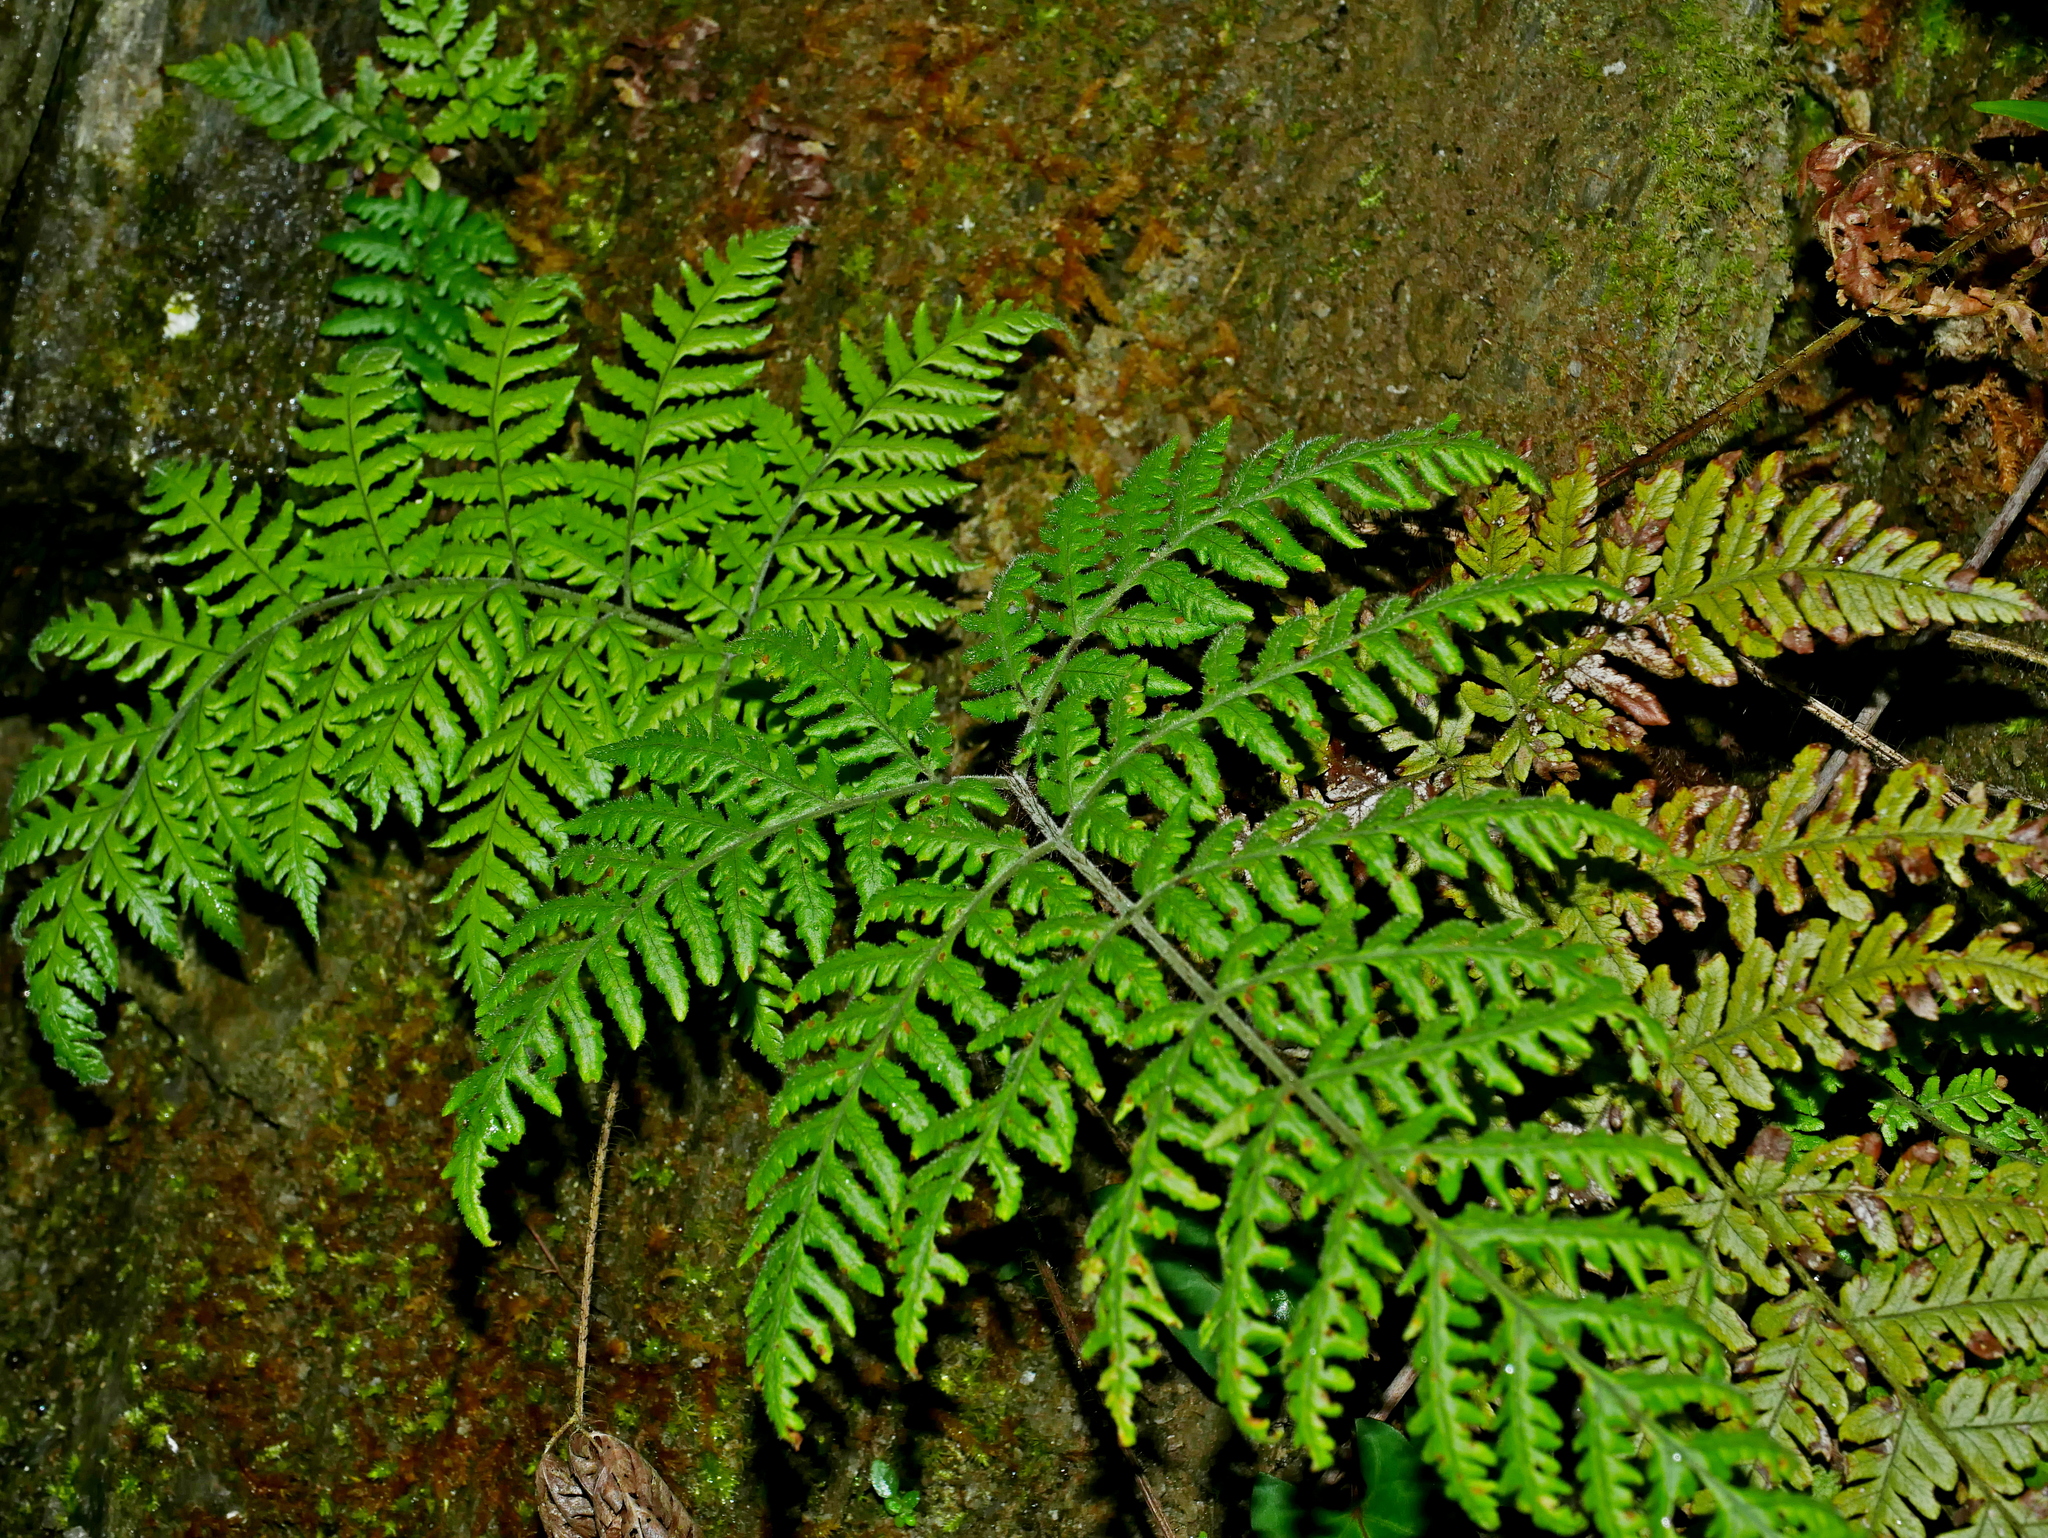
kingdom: Plantae
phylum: Tracheophyta
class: Polypodiopsida
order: Polypodiales
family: Dryopteridaceae
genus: Ctenitis
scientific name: Ctenitis eatonii
